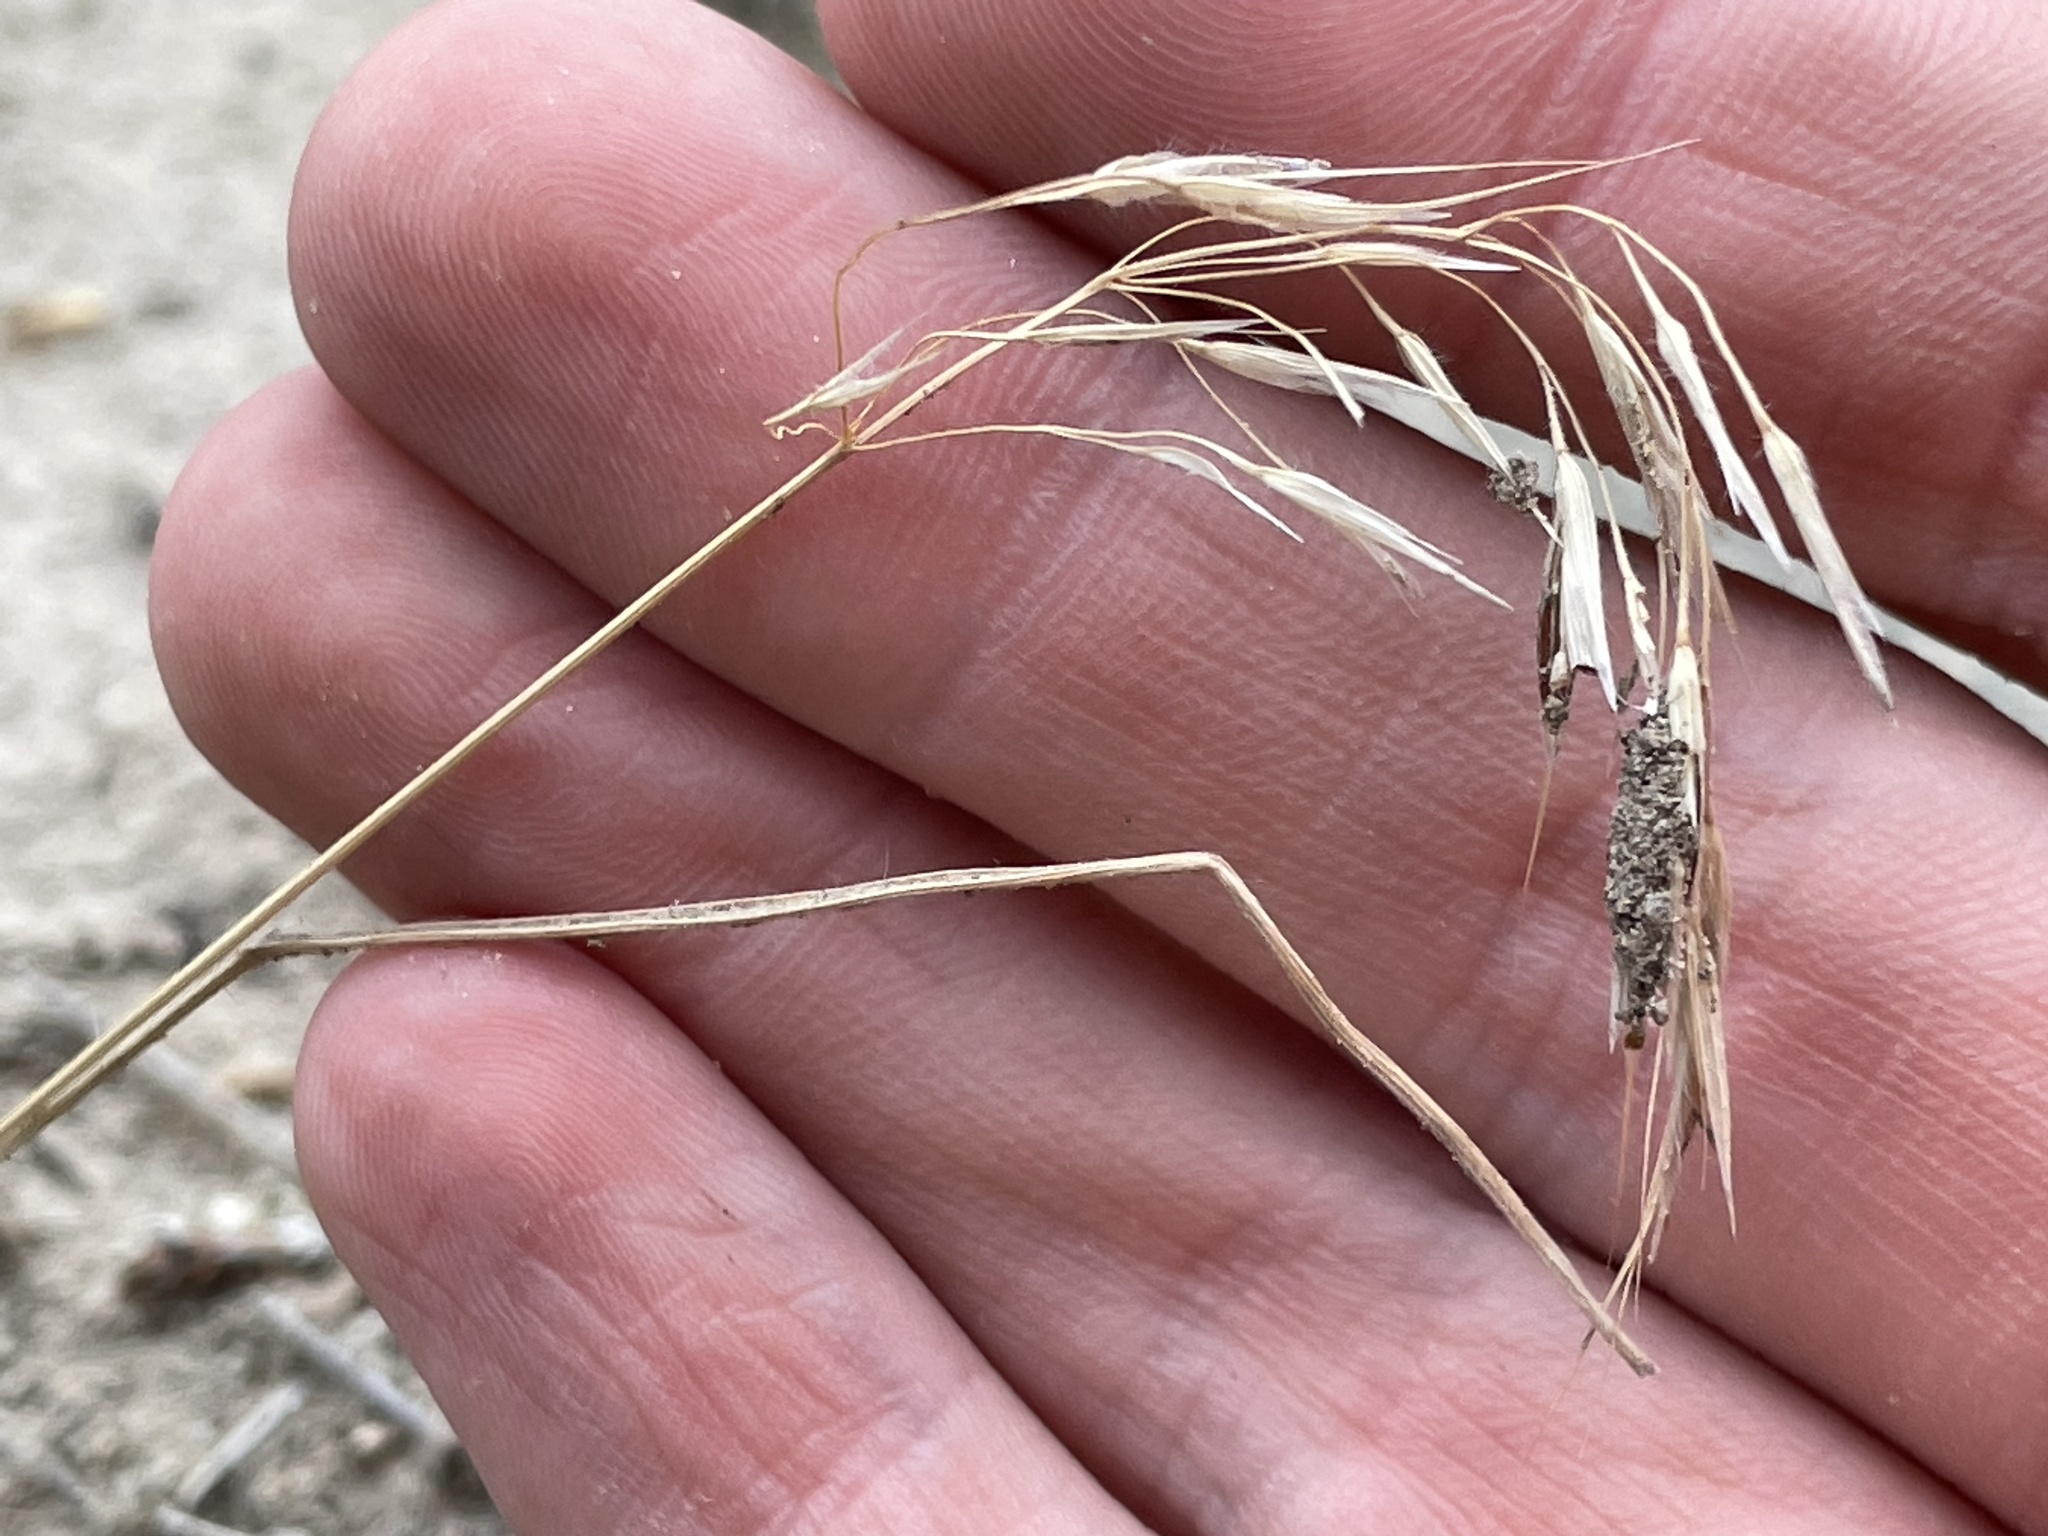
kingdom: Plantae
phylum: Tracheophyta
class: Liliopsida
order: Poales
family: Poaceae
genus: Bromus
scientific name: Bromus tectorum
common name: Cheatgrass
